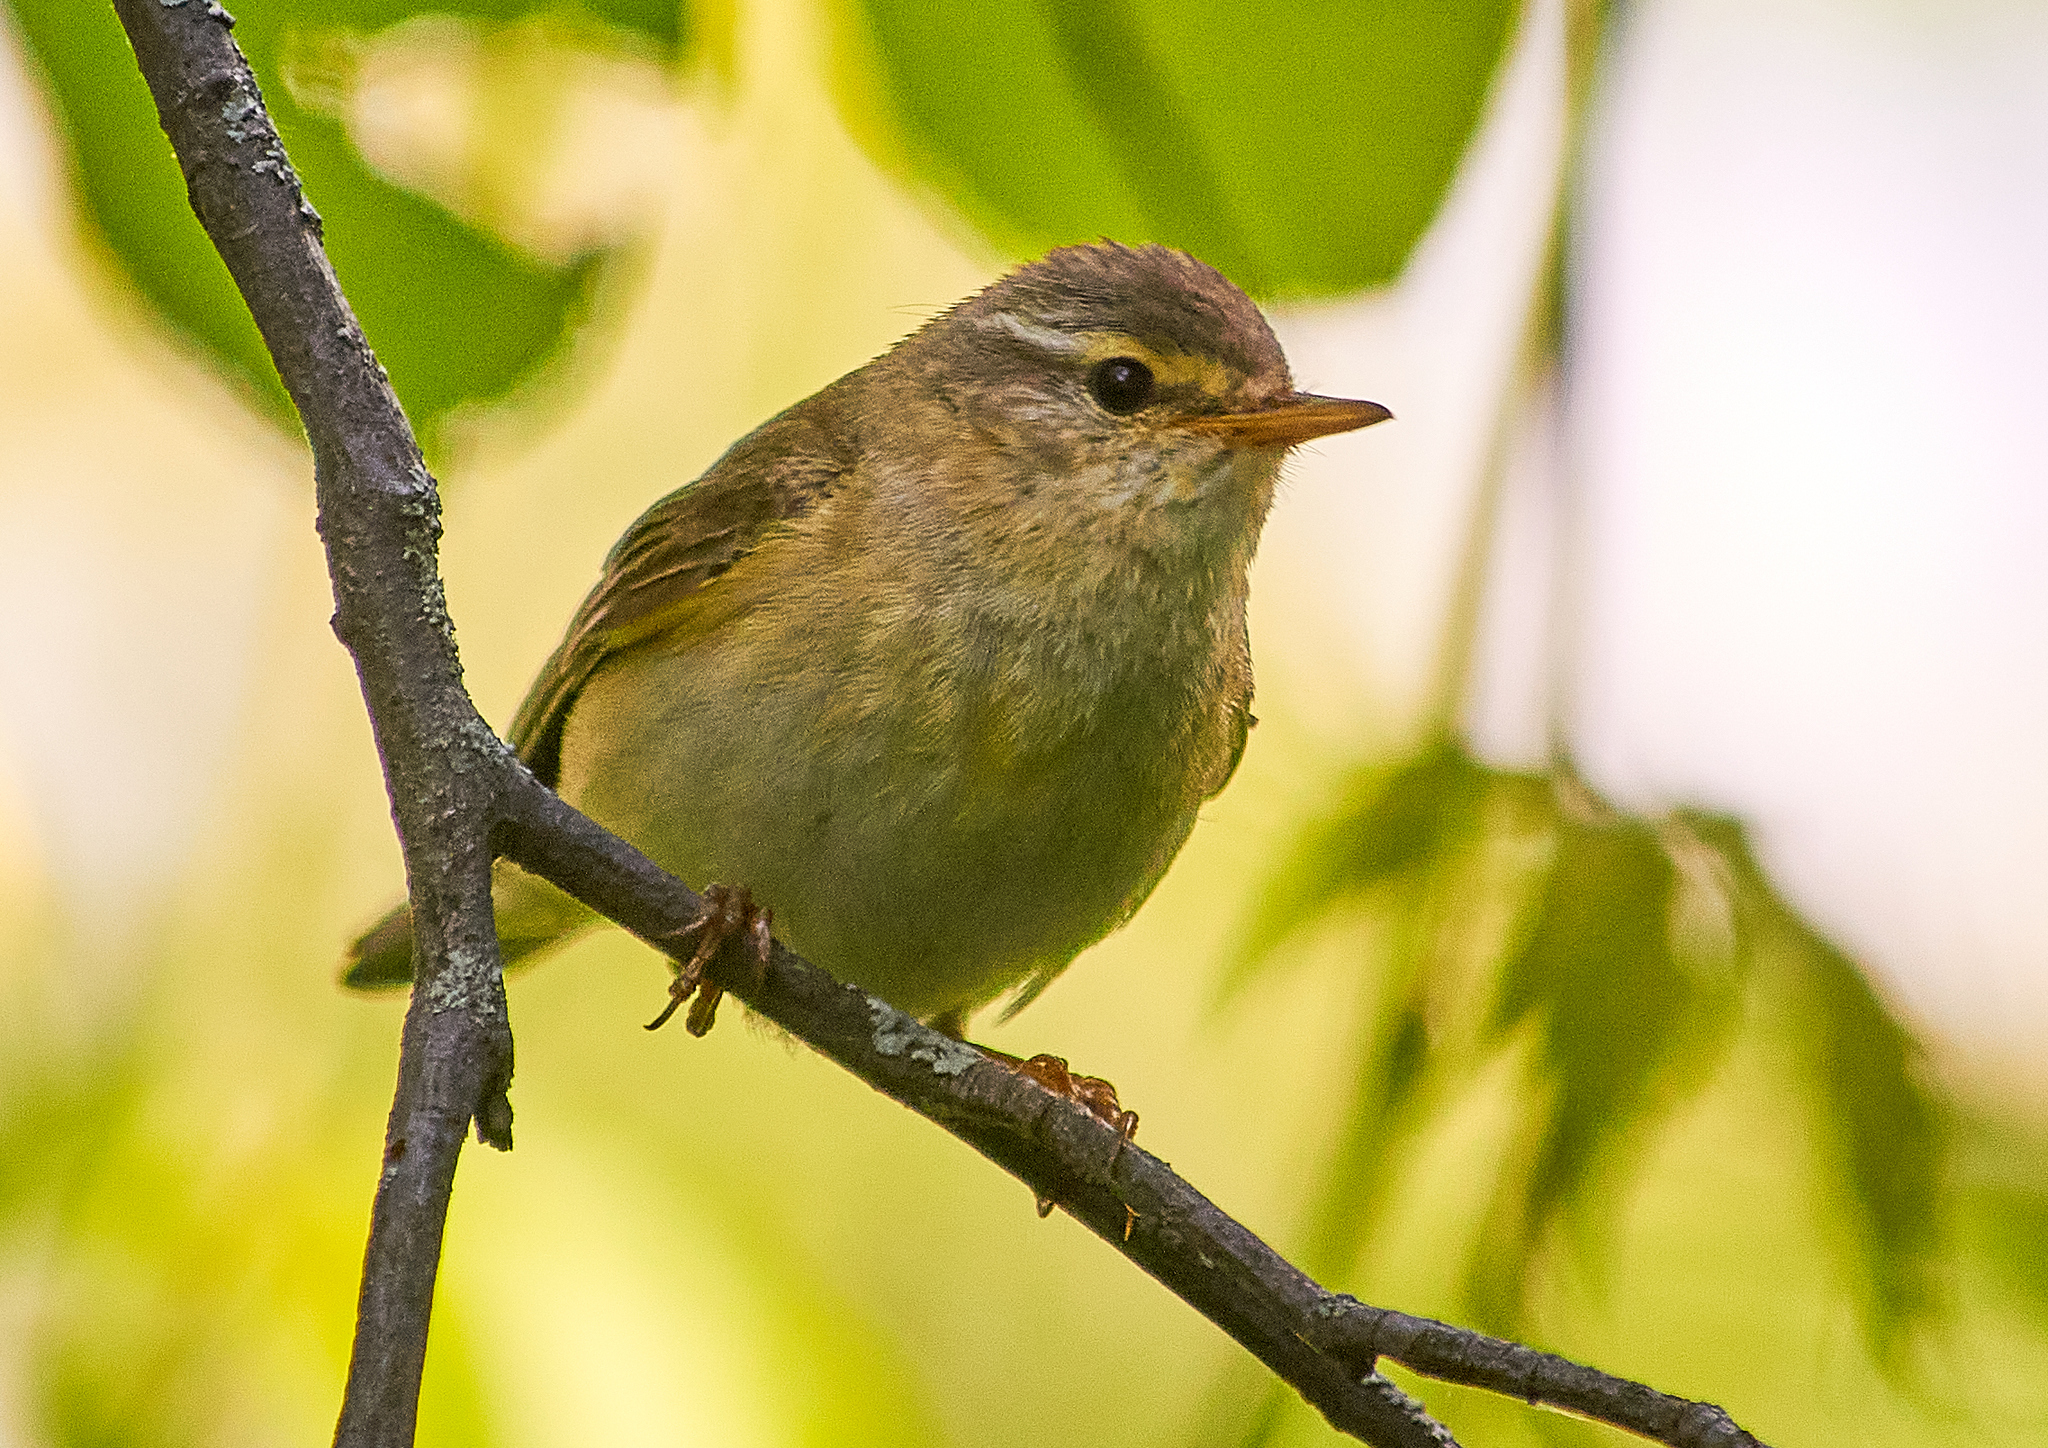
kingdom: Animalia
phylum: Chordata
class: Aves
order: Passeriformes
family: Phylloscopidae
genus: Phylloscopus
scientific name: Phylloscopus trochilus
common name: Willow warbler
